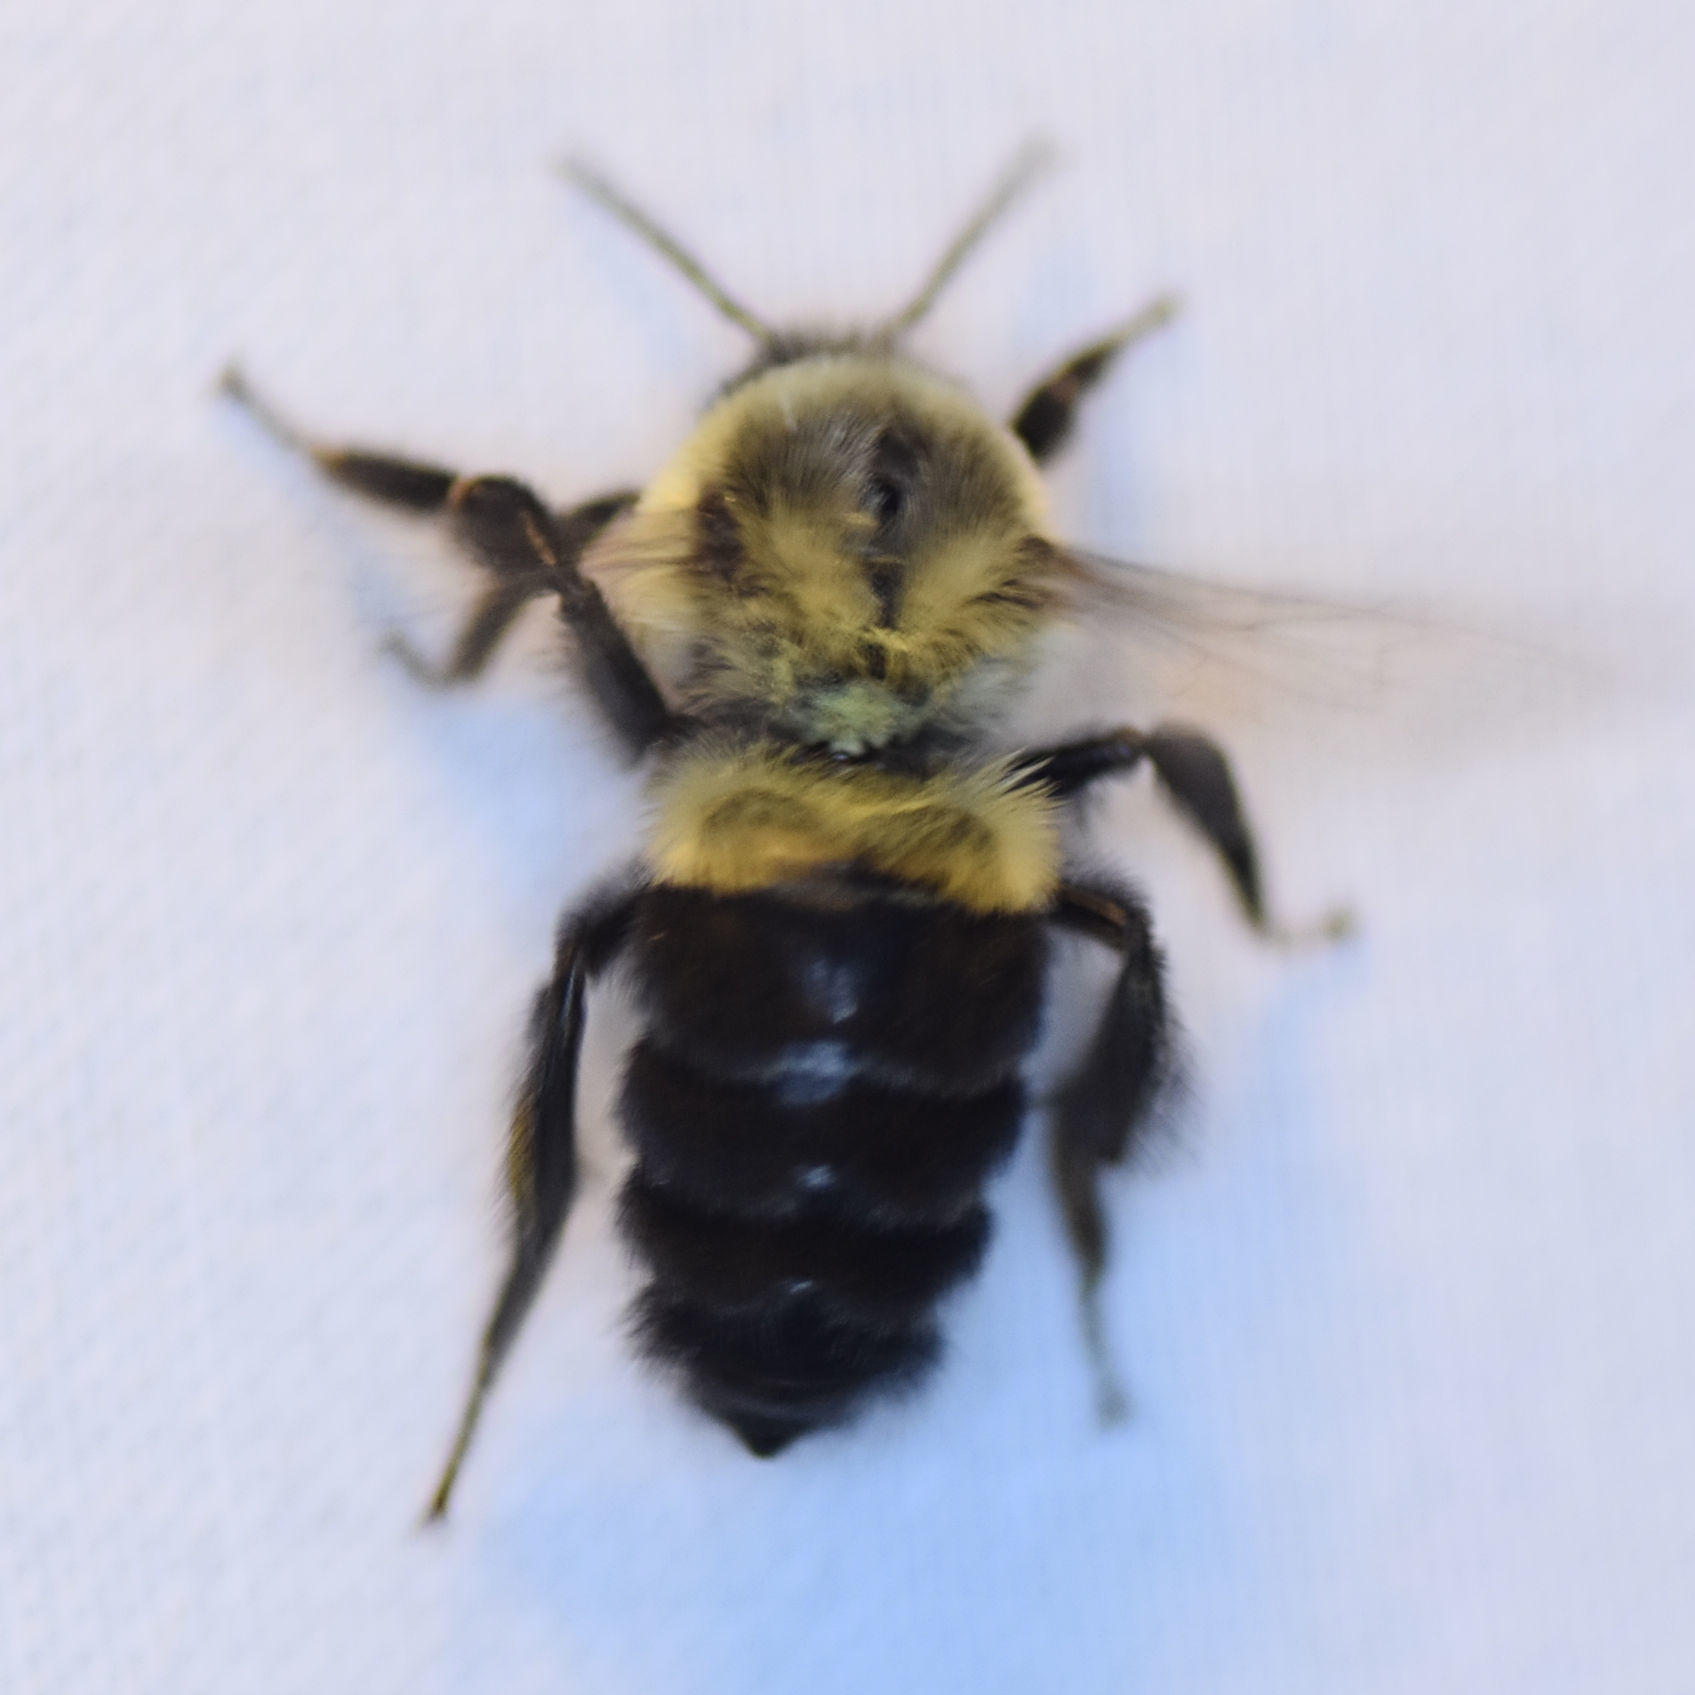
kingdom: Animalia
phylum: Arthropoda
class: Insecta
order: Hymenoptera
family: Apidae
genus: Bombus
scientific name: Bombus impatiens
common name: Common eastern bumble bee
